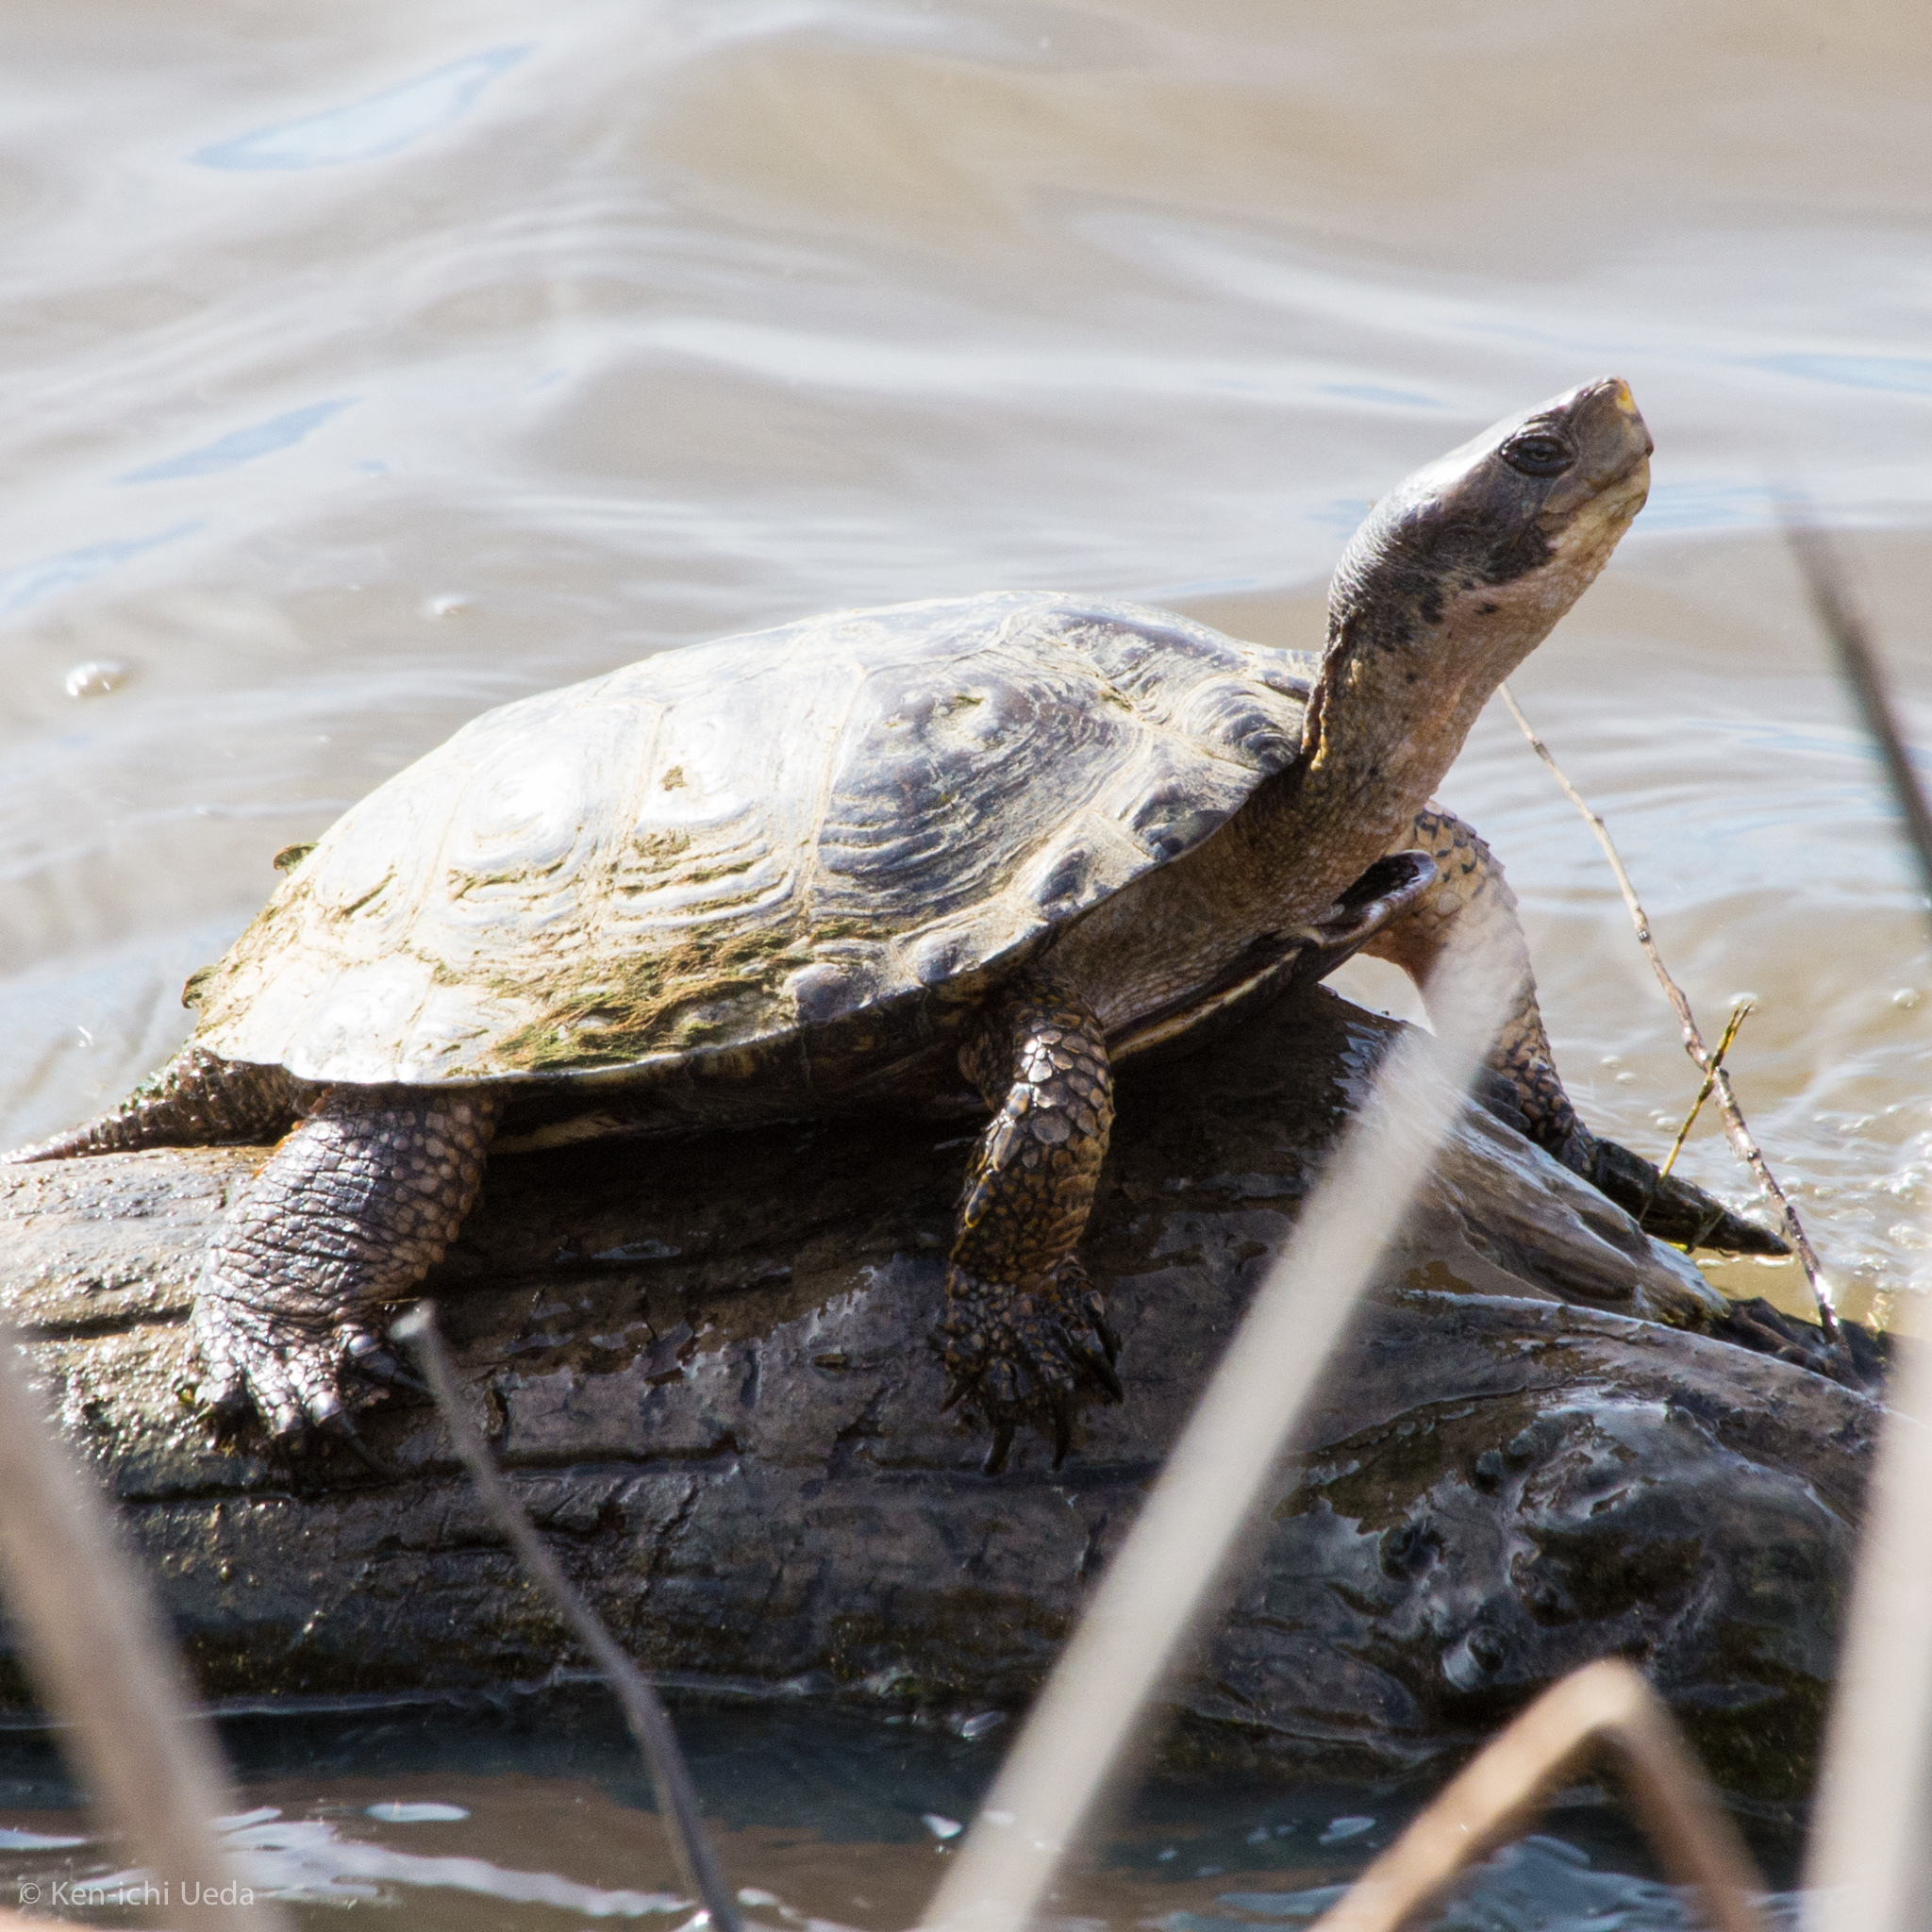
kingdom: Animalia
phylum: Chordata
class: Testudines
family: Emydidae
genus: Actinemys
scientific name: Actinemys marmorata
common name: Western pond turtle
